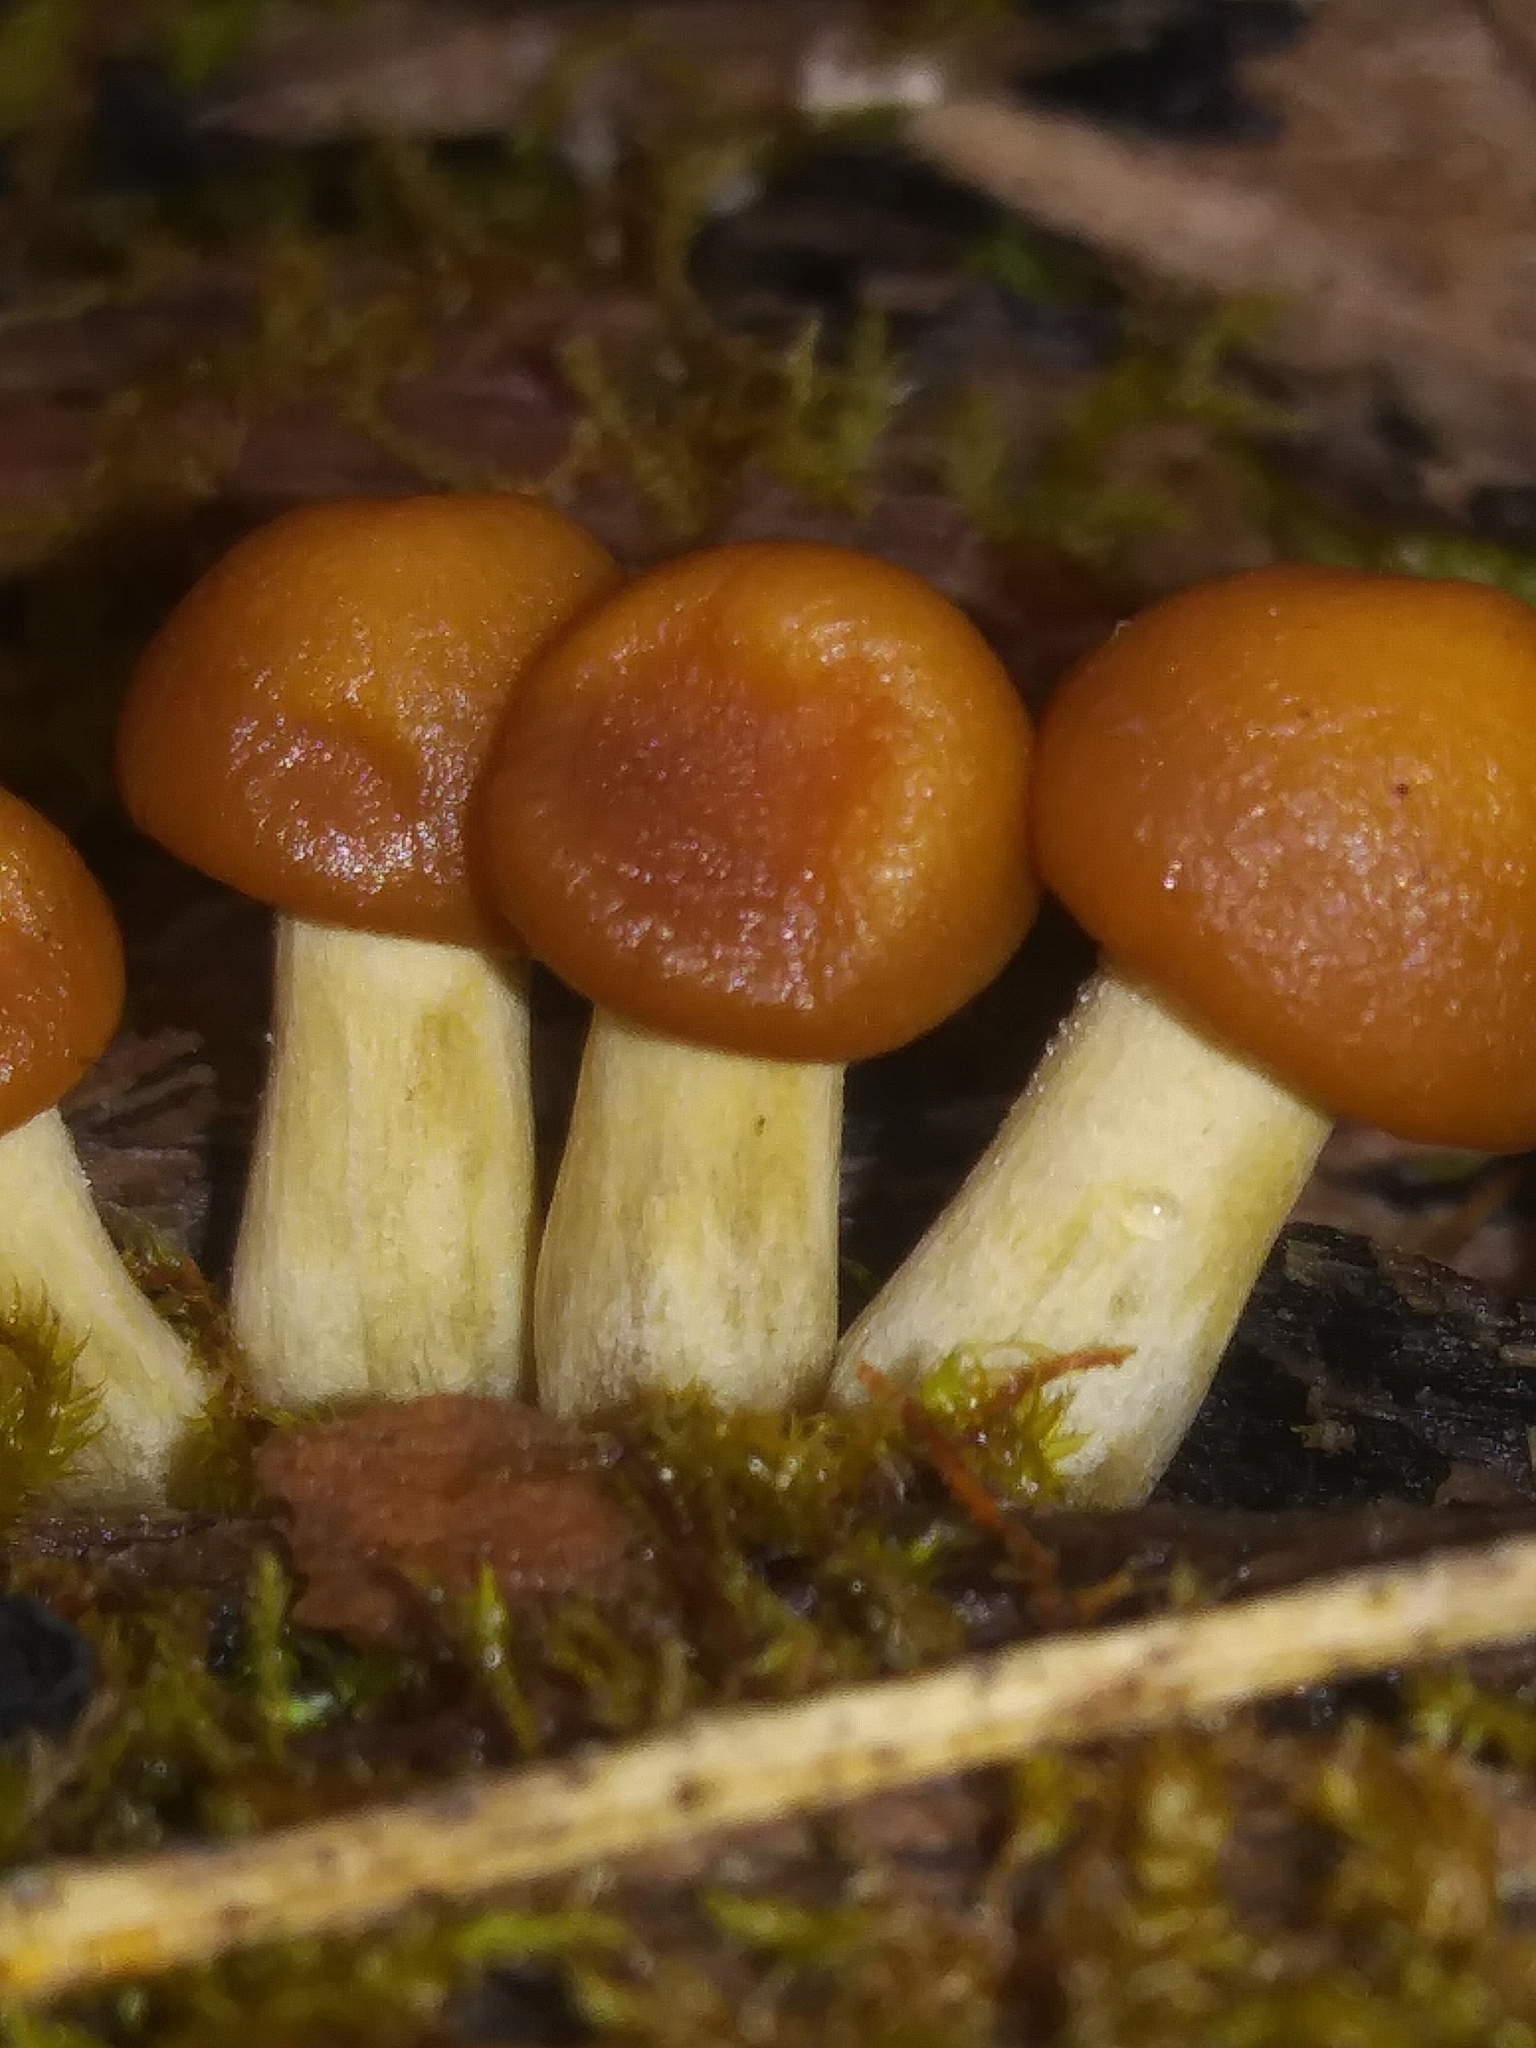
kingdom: Fungi
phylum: Basidiomycota
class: Agaricomycetes
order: Agaricales
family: Hymenogastraceae
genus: Galerina
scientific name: Galerina marginata
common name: Funeral bell
